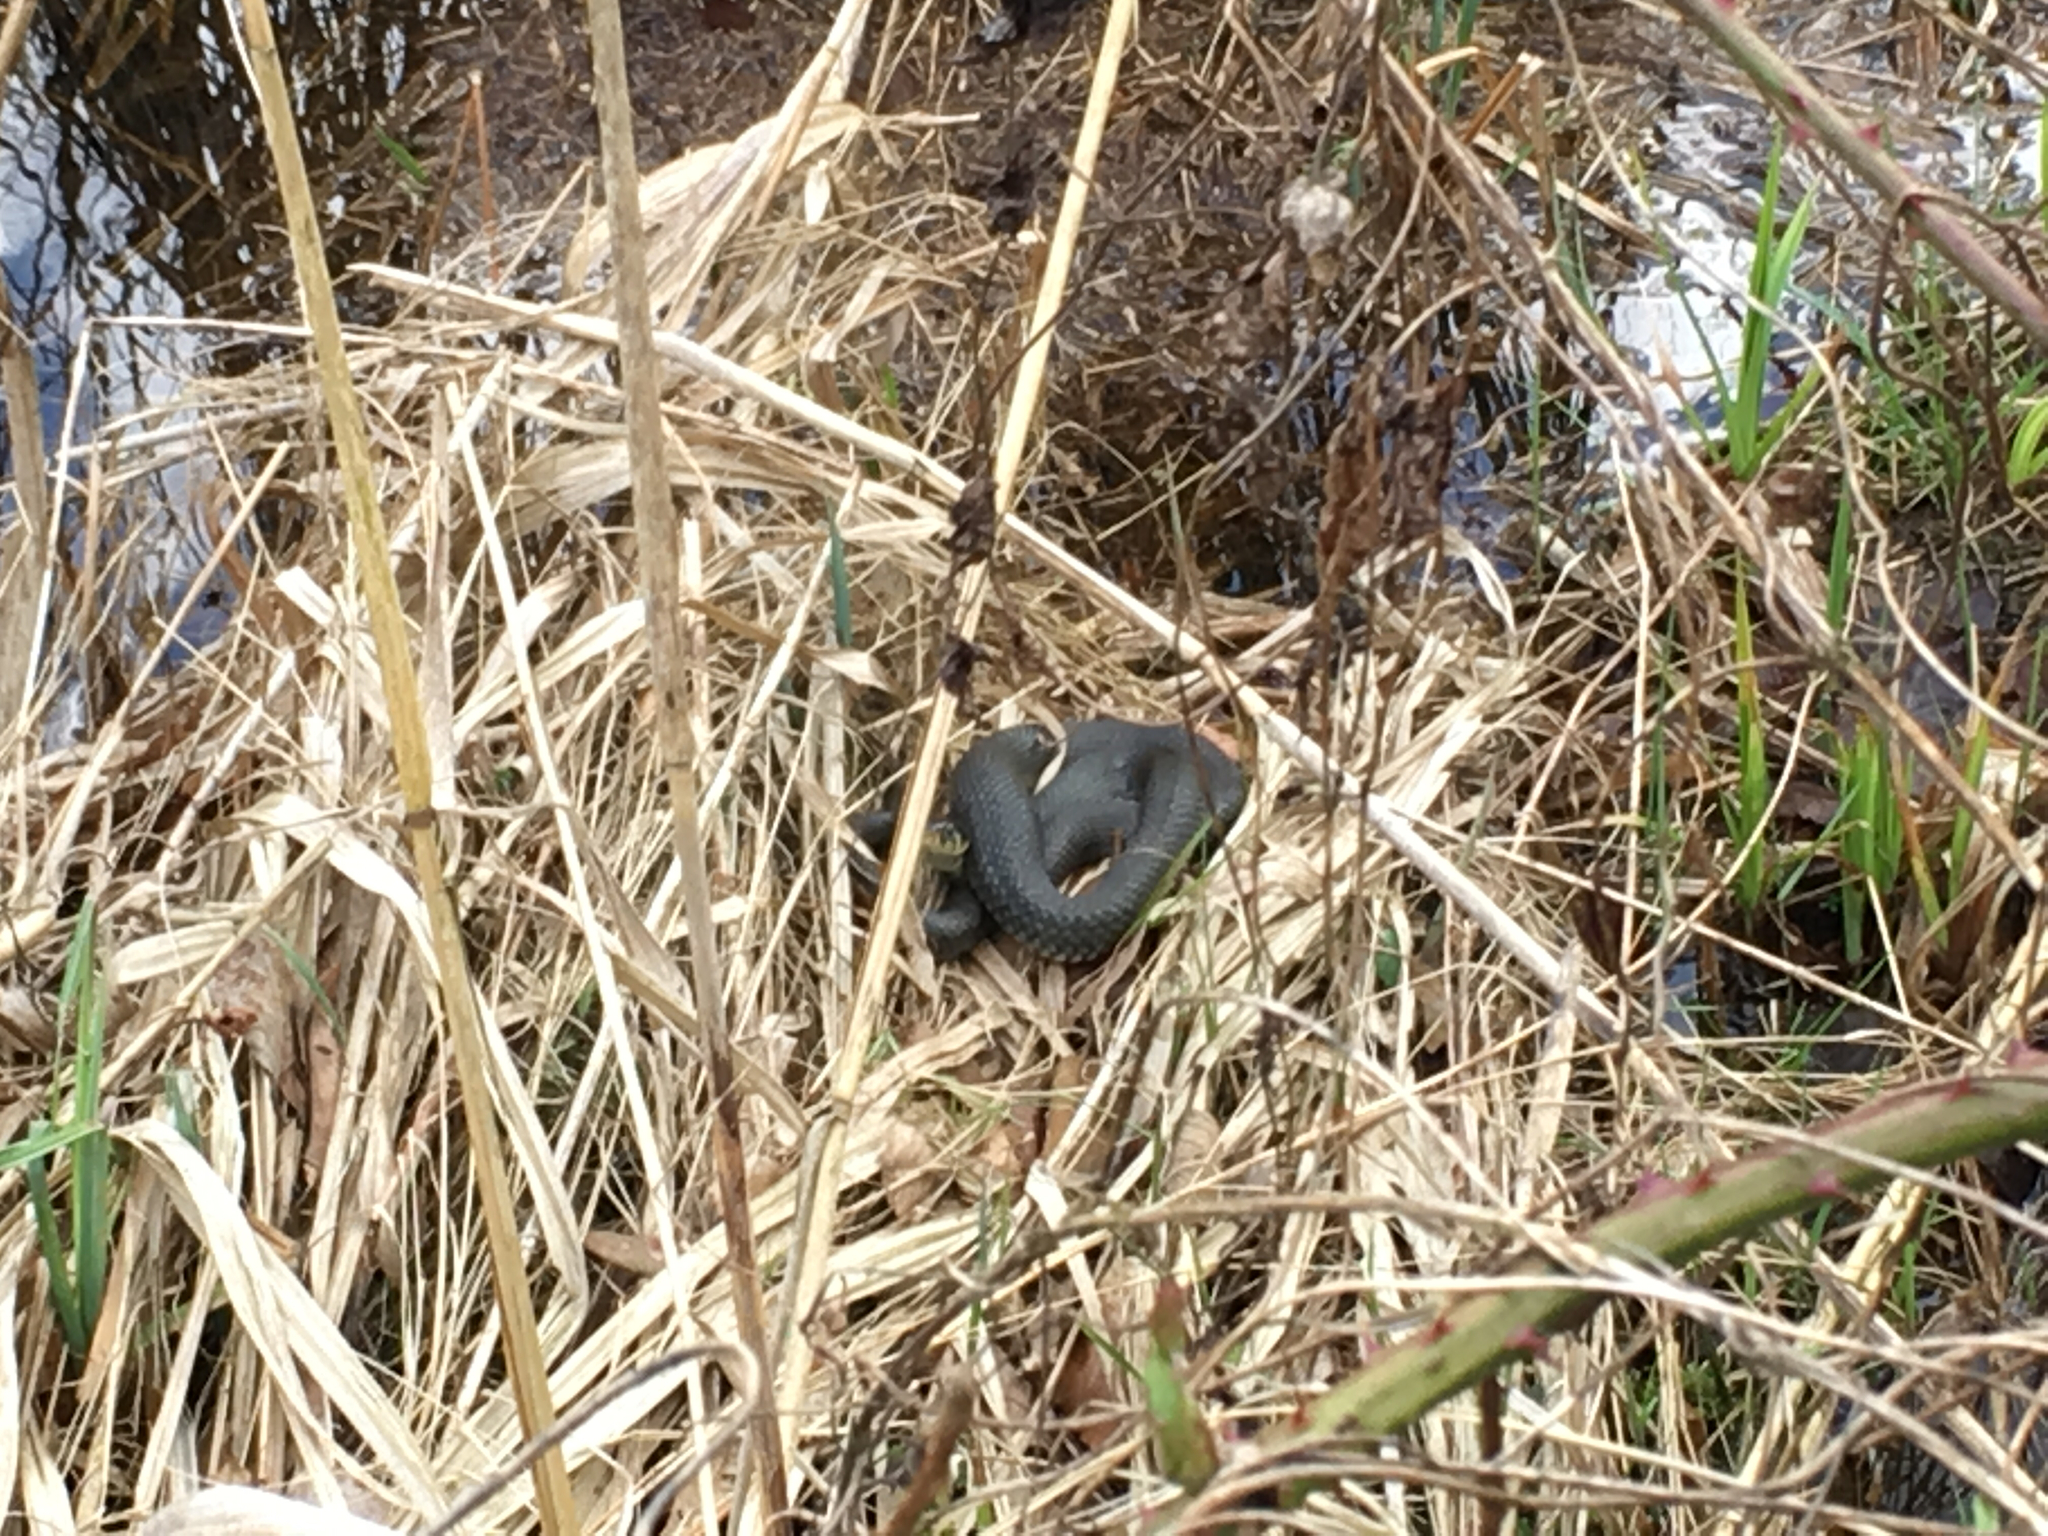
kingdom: Animalia
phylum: Chordata
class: Squamata
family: Colubridae
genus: Natrix
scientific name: Natrix natrix
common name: Grass snake
